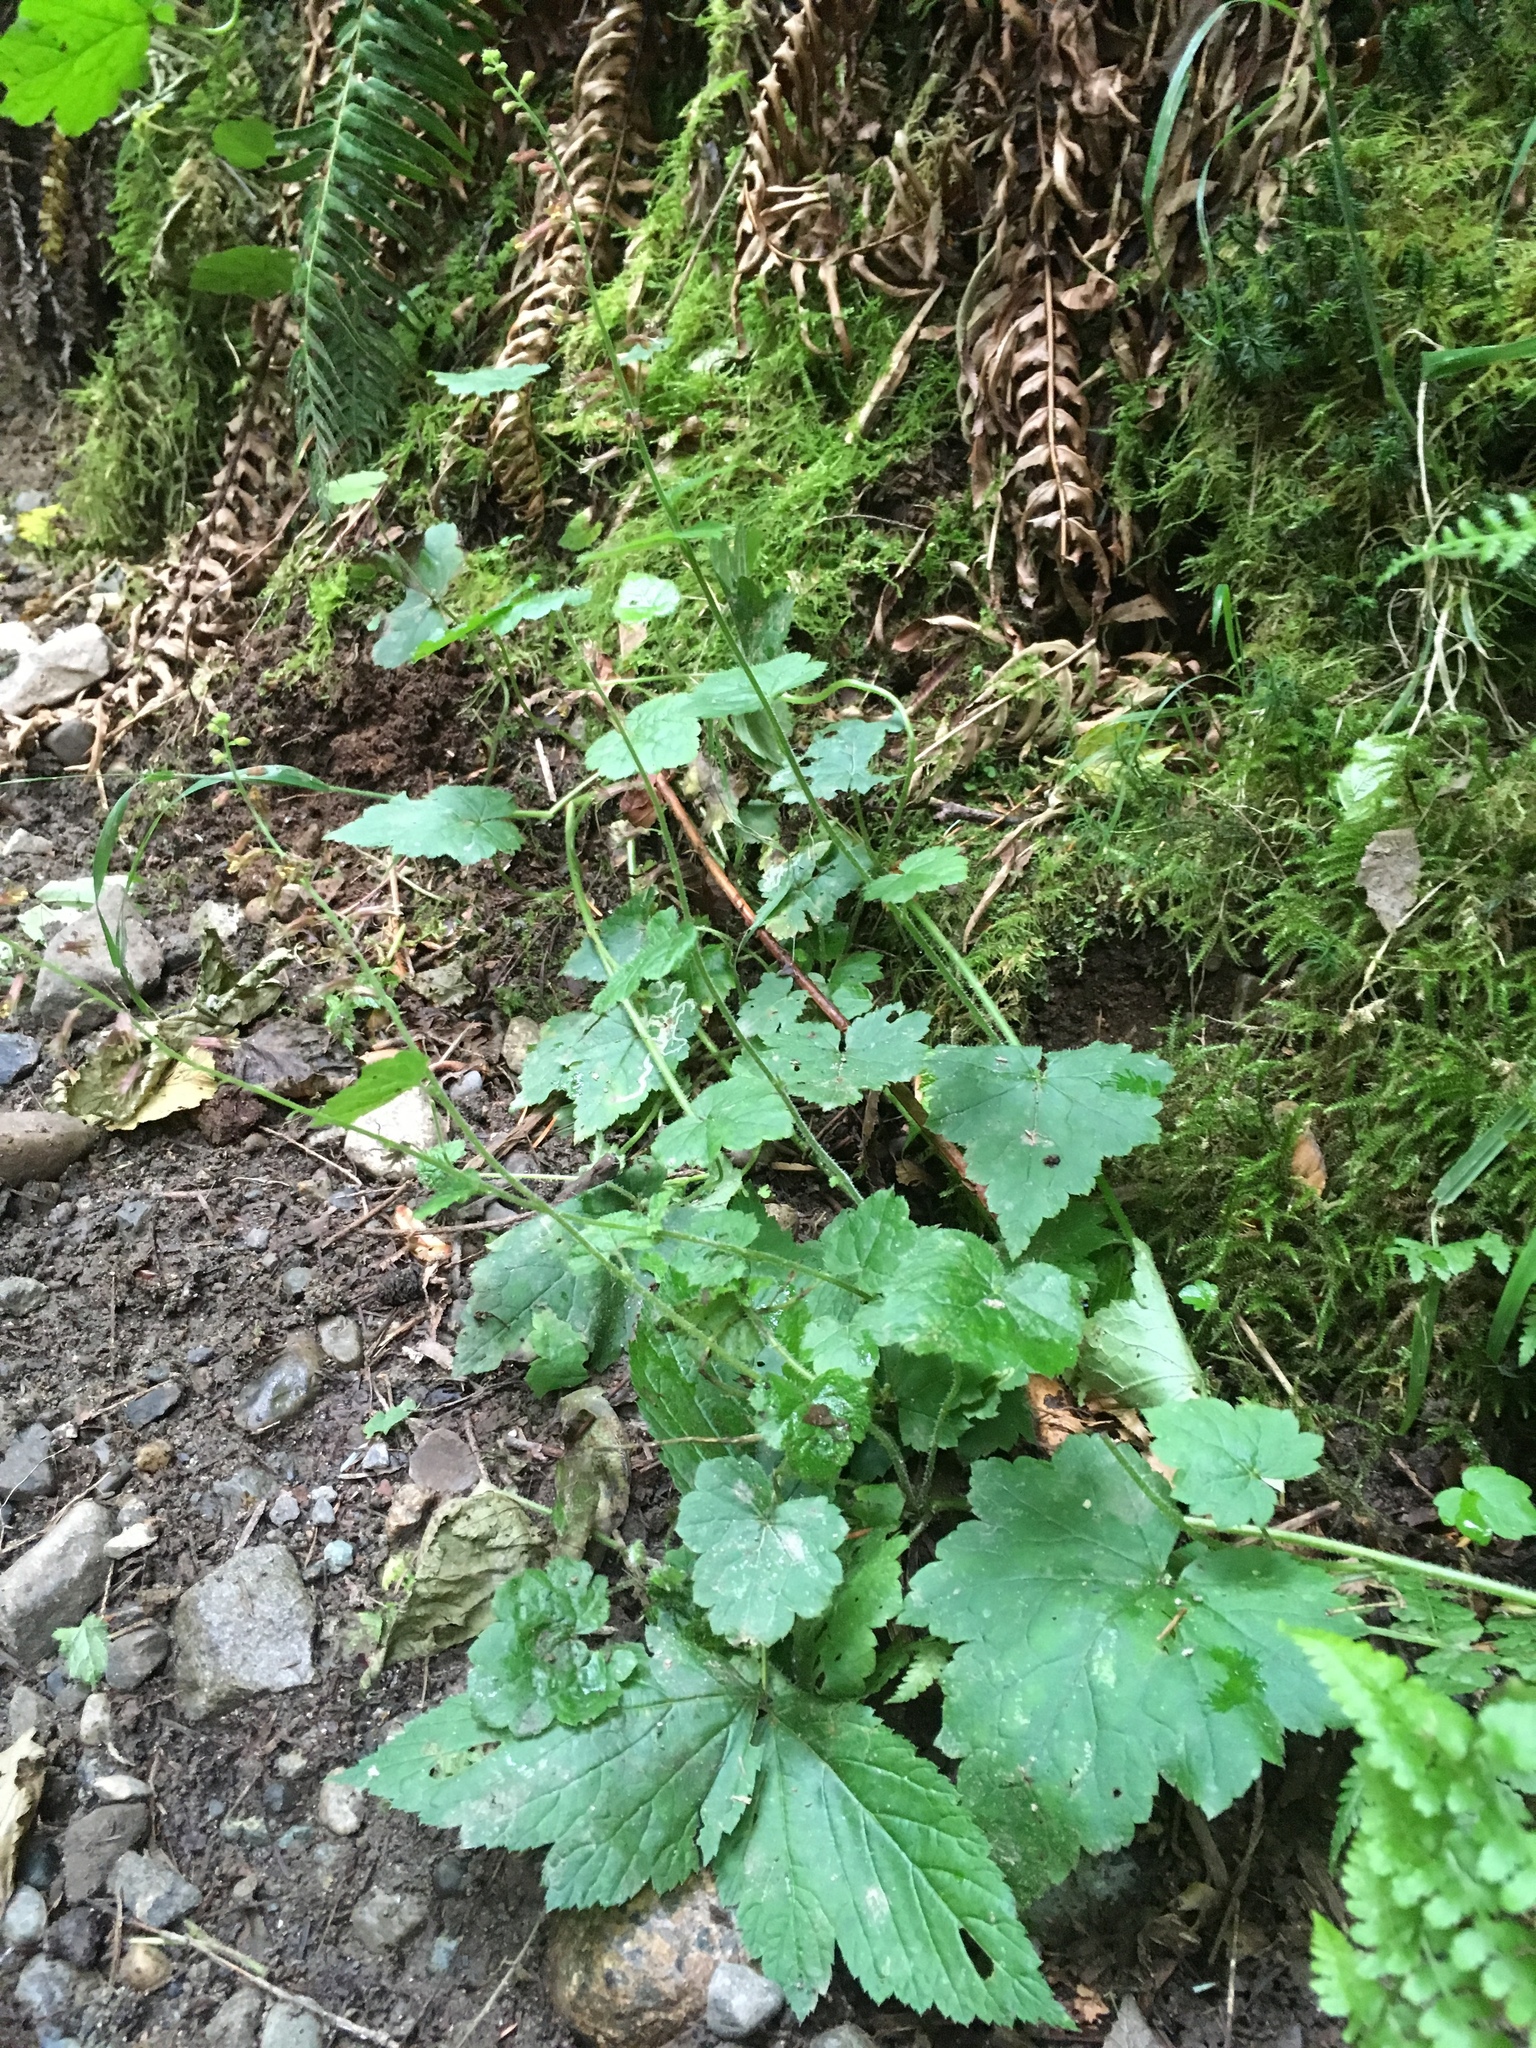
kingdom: Plantae
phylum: Tracheophyta
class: Magnoliopsida
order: Saxifragales
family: Saxifragaceae
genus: Tolmiea
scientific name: Tolmiea menziesii
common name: Pick-a-back-plant
